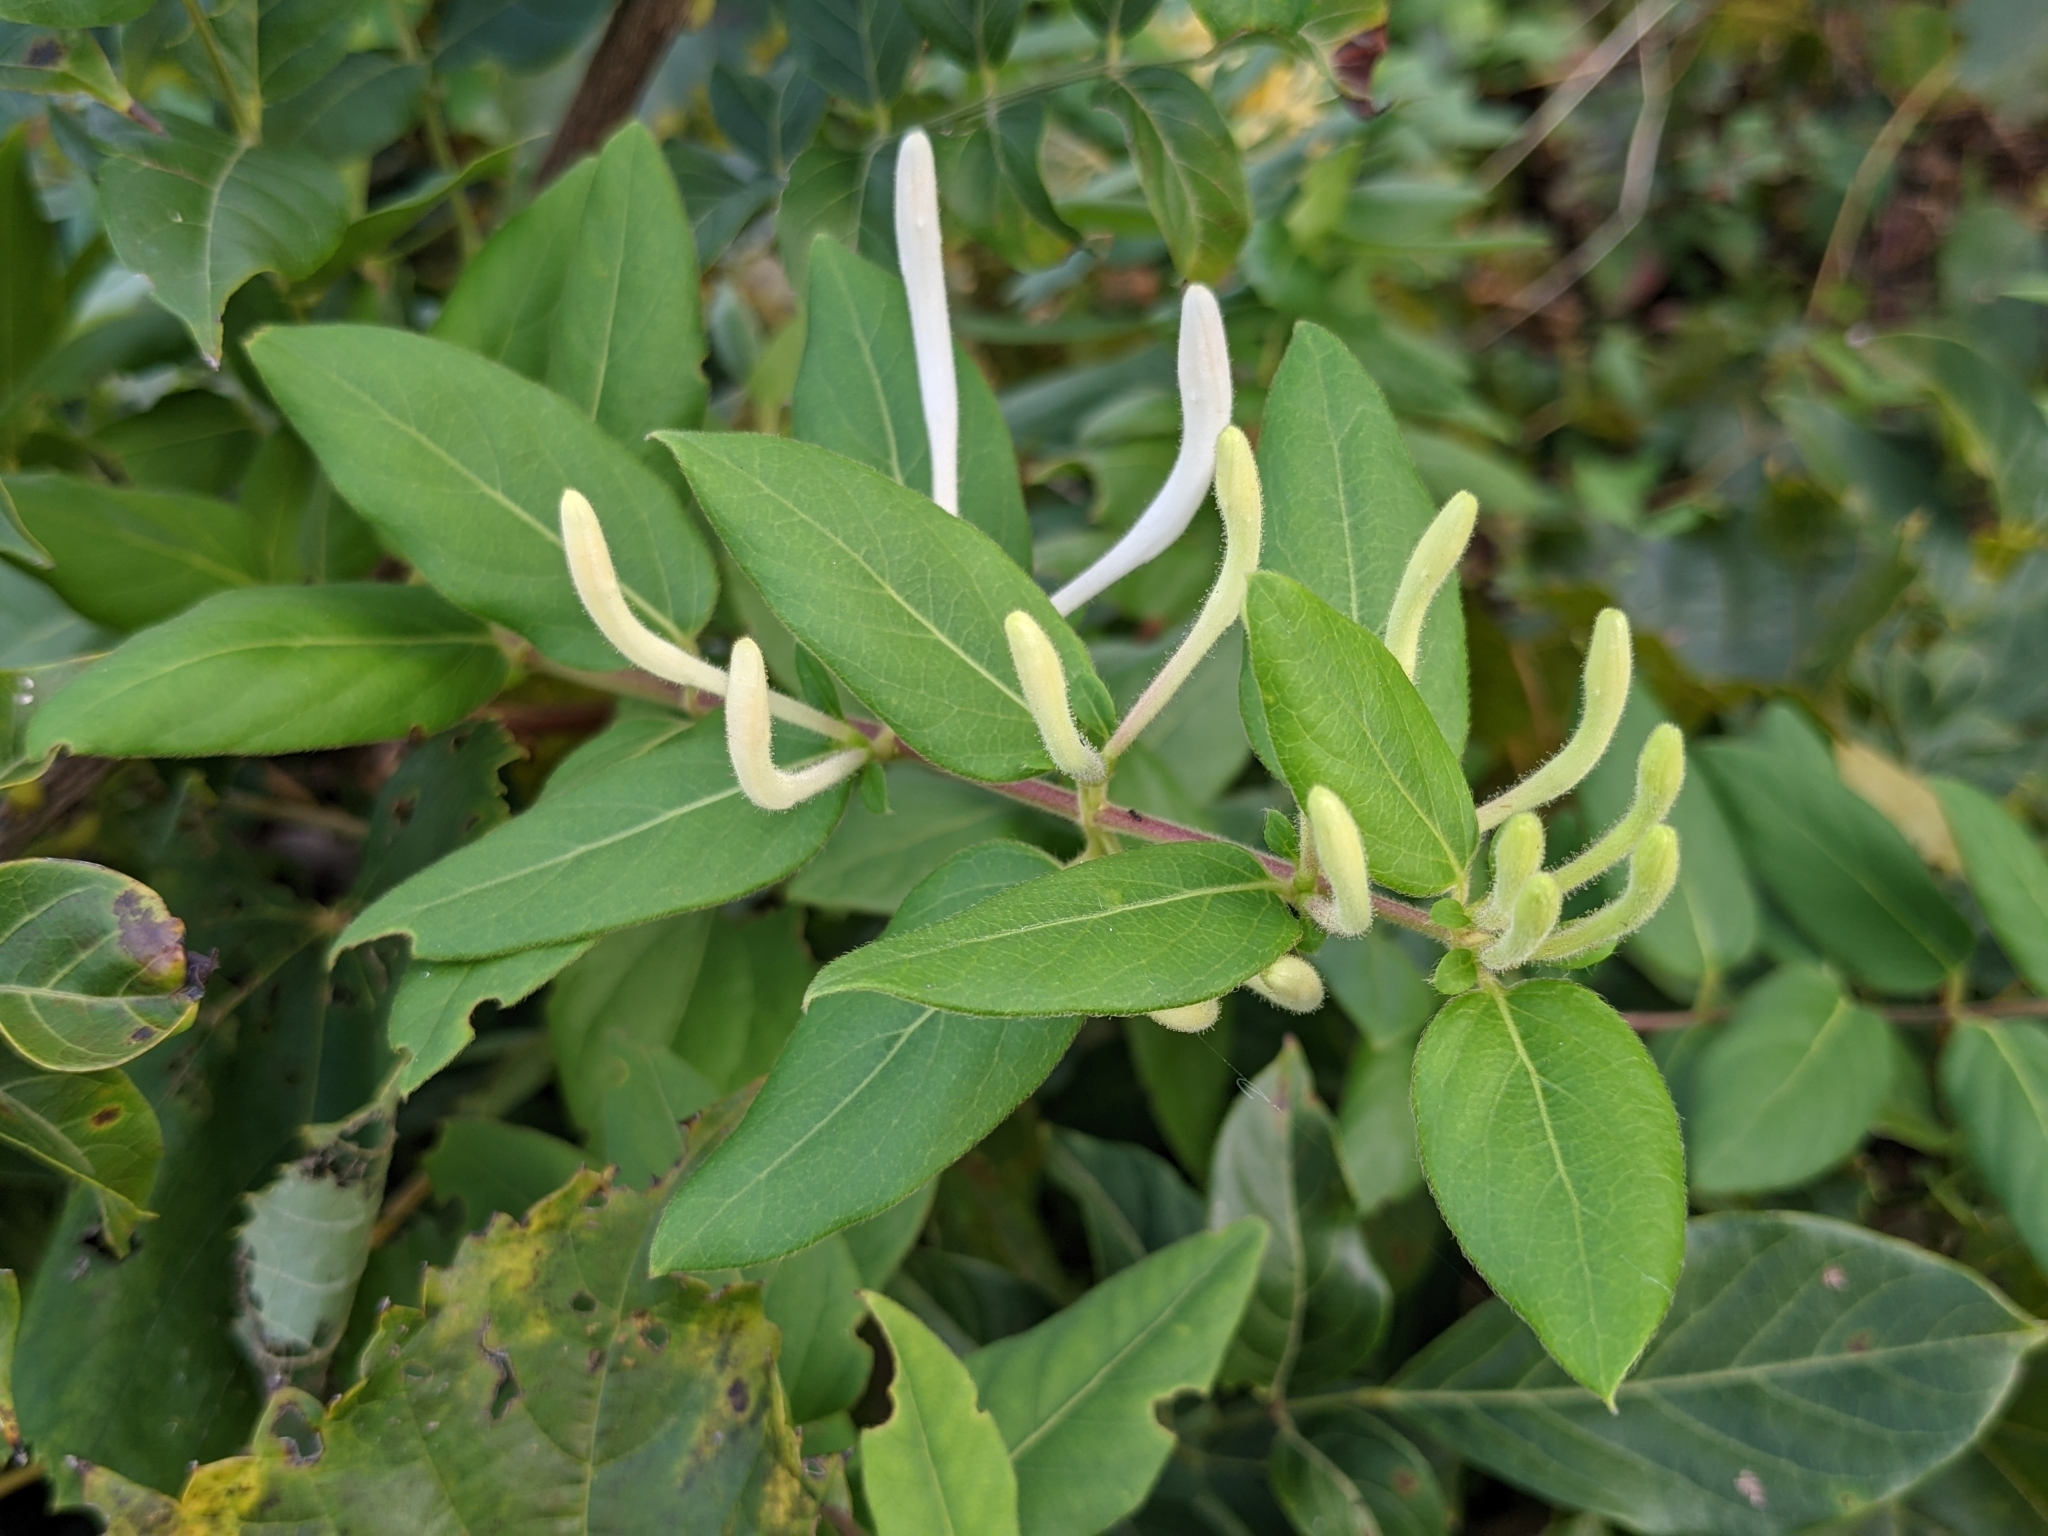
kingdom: Plantae
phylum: Tracheophyta
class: Magnoliopsida
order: Dipsacales
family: Caprifoliaceae
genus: Lonicera
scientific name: Lonicera japonica
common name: Japanese honeysuckle
